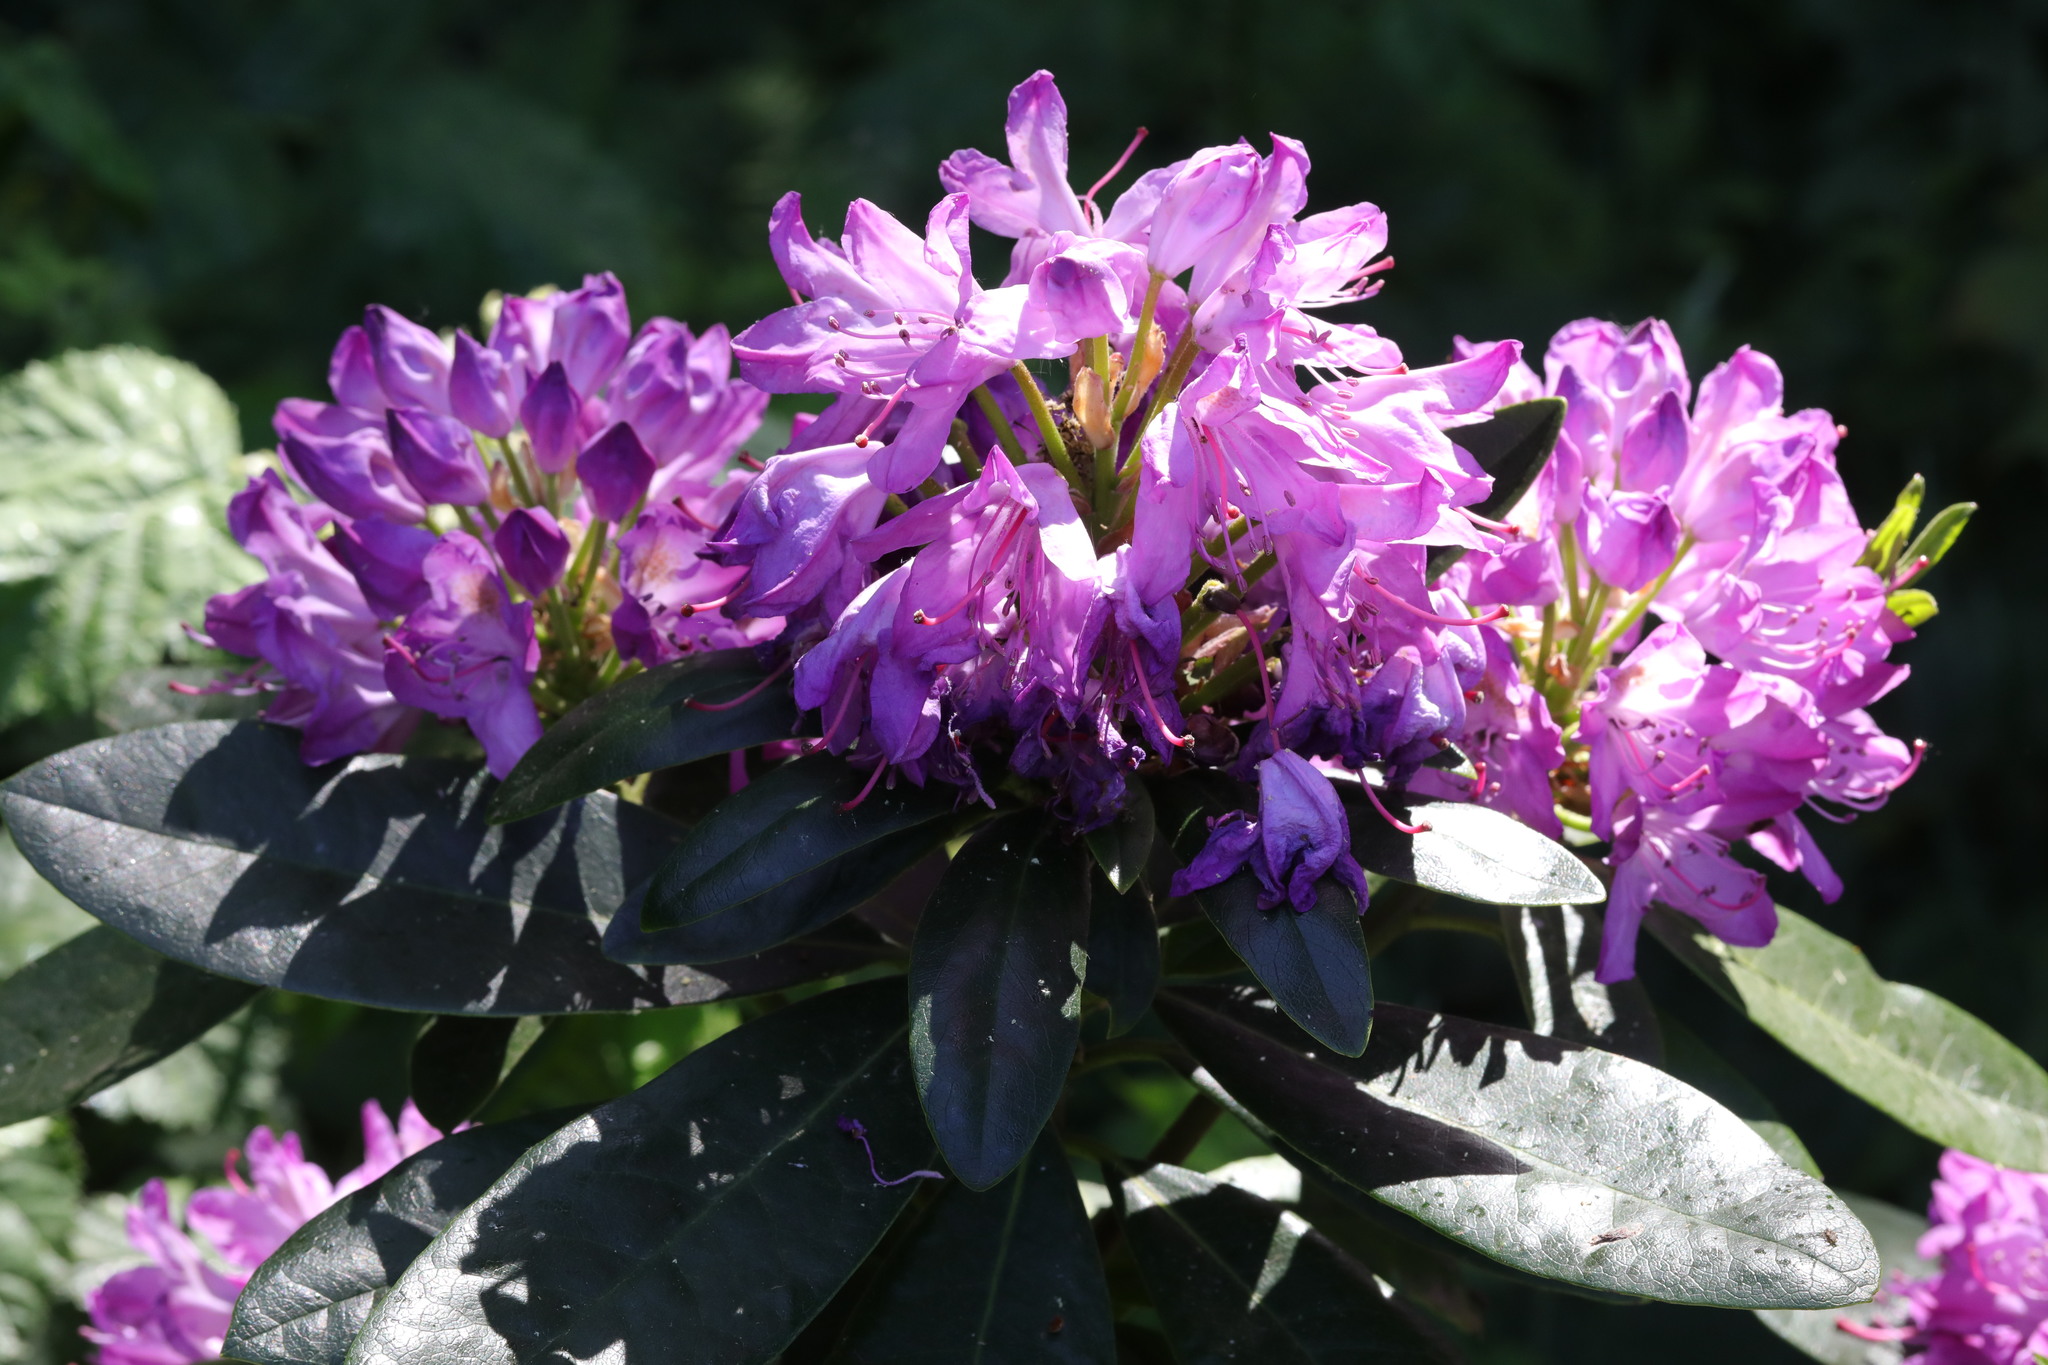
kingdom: Plantae
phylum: Tracheophyta
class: Magnoliopsida
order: Ericales
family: Ericaceae
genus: Rhododendron
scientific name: Rhododendron ponticum
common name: Rhododendron
